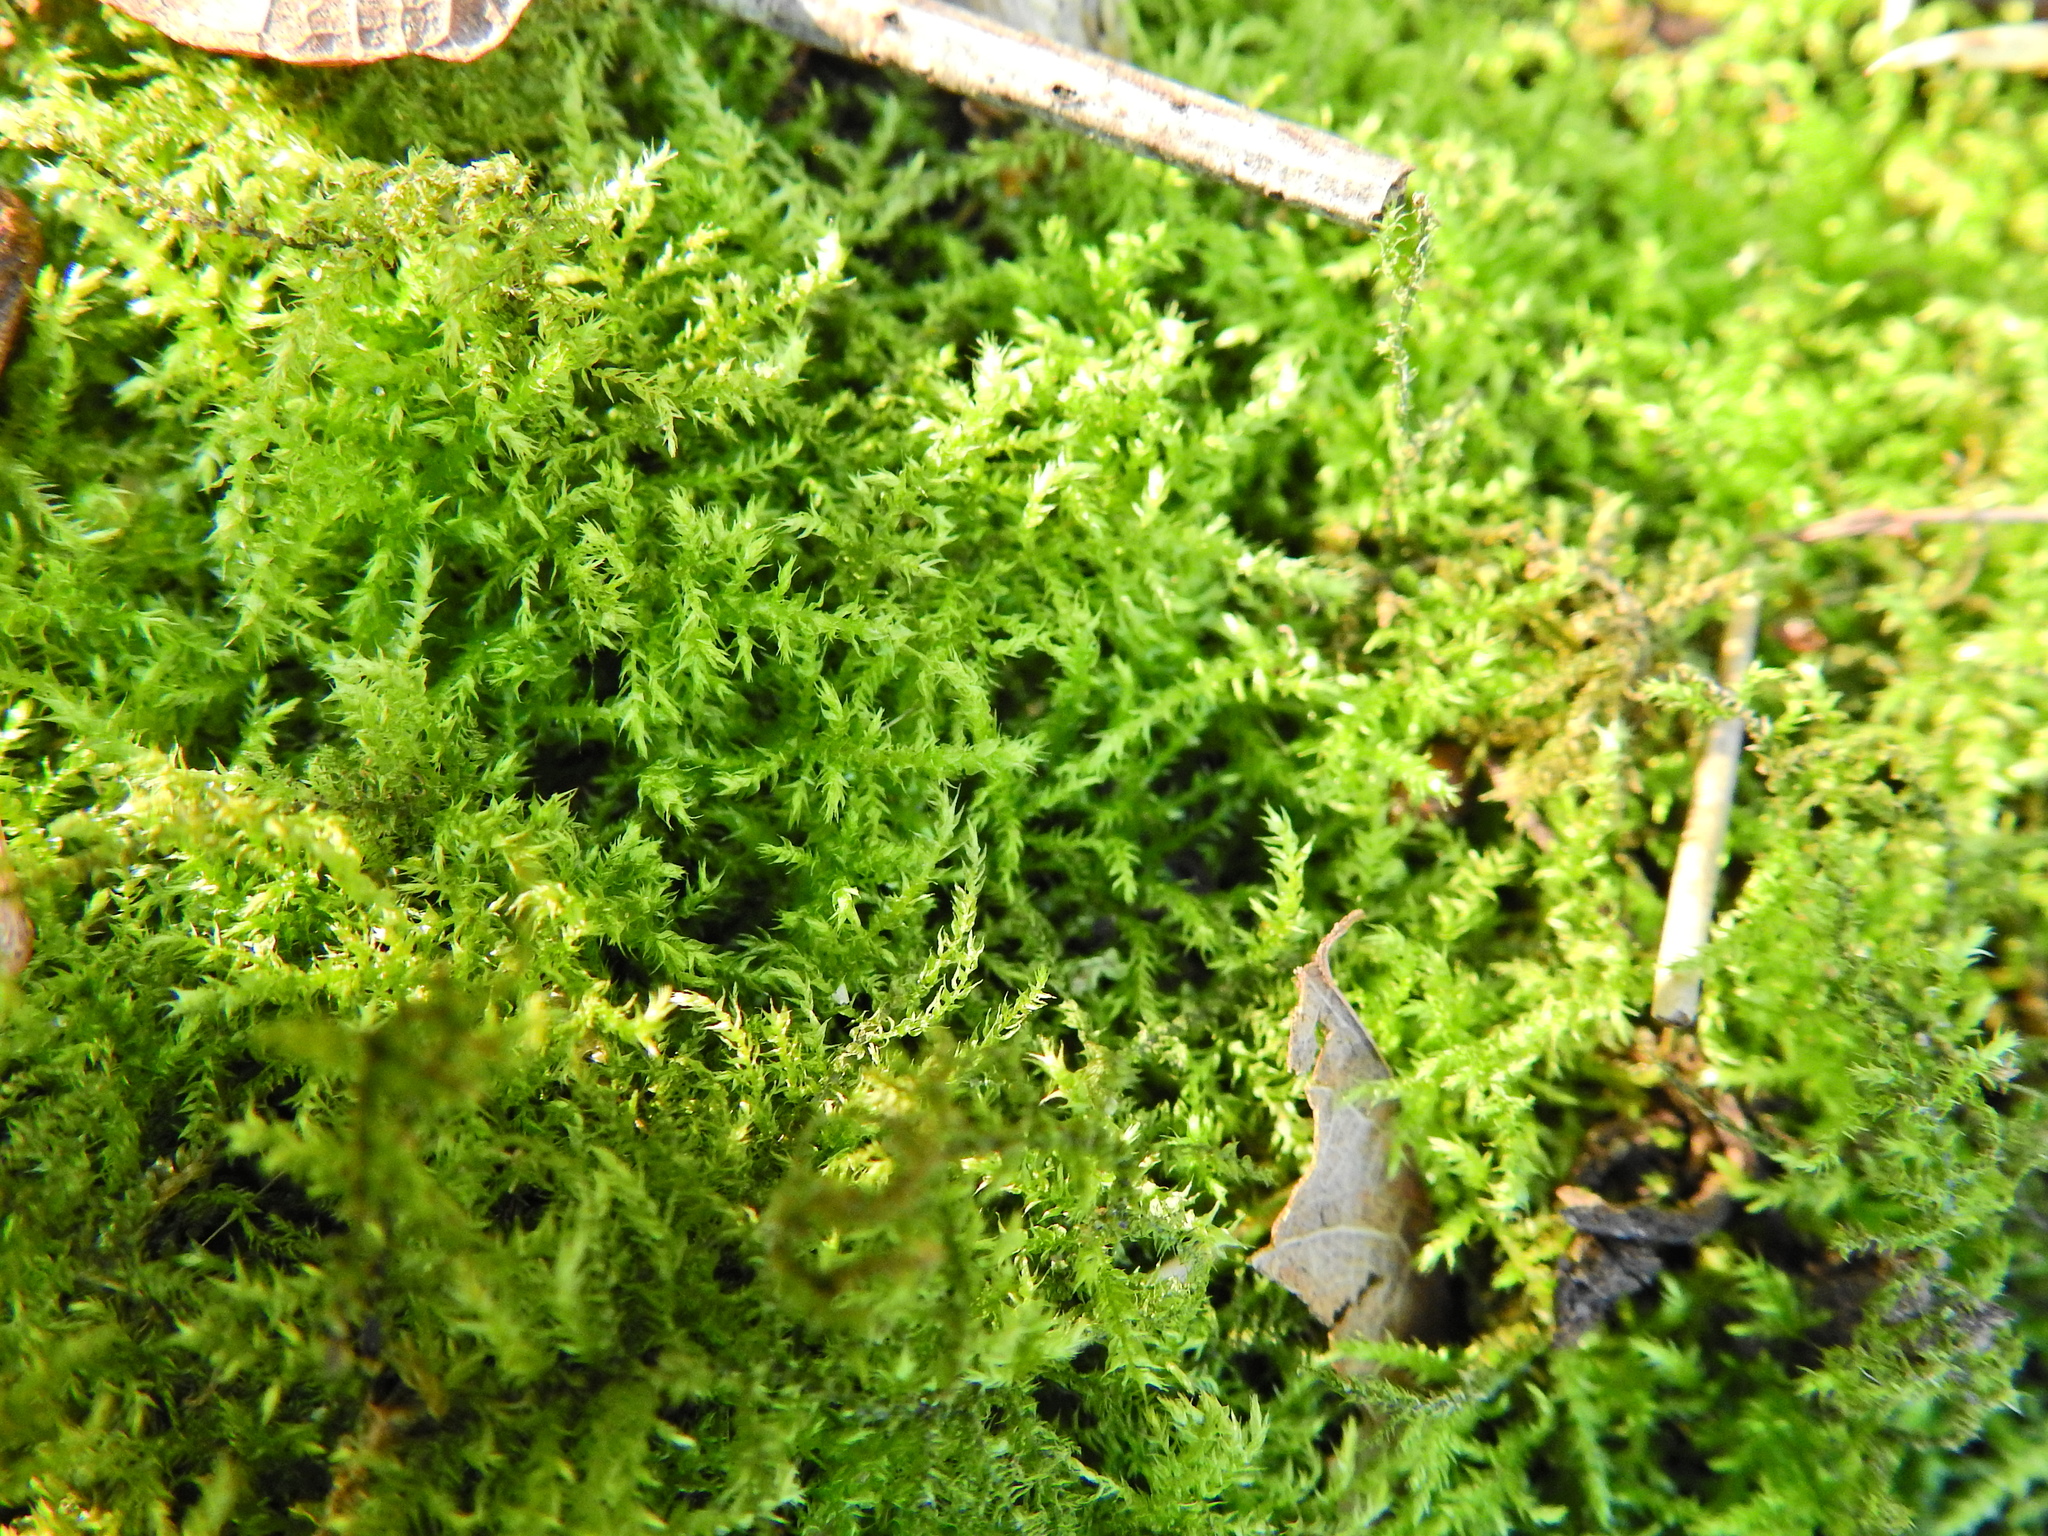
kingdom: Plantae
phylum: Bryophyta
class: Bryopsida
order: Hypnales
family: Brachytheciaceae
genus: Kindbergia
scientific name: Kindbergia praelonga
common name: Slender beaked moss
